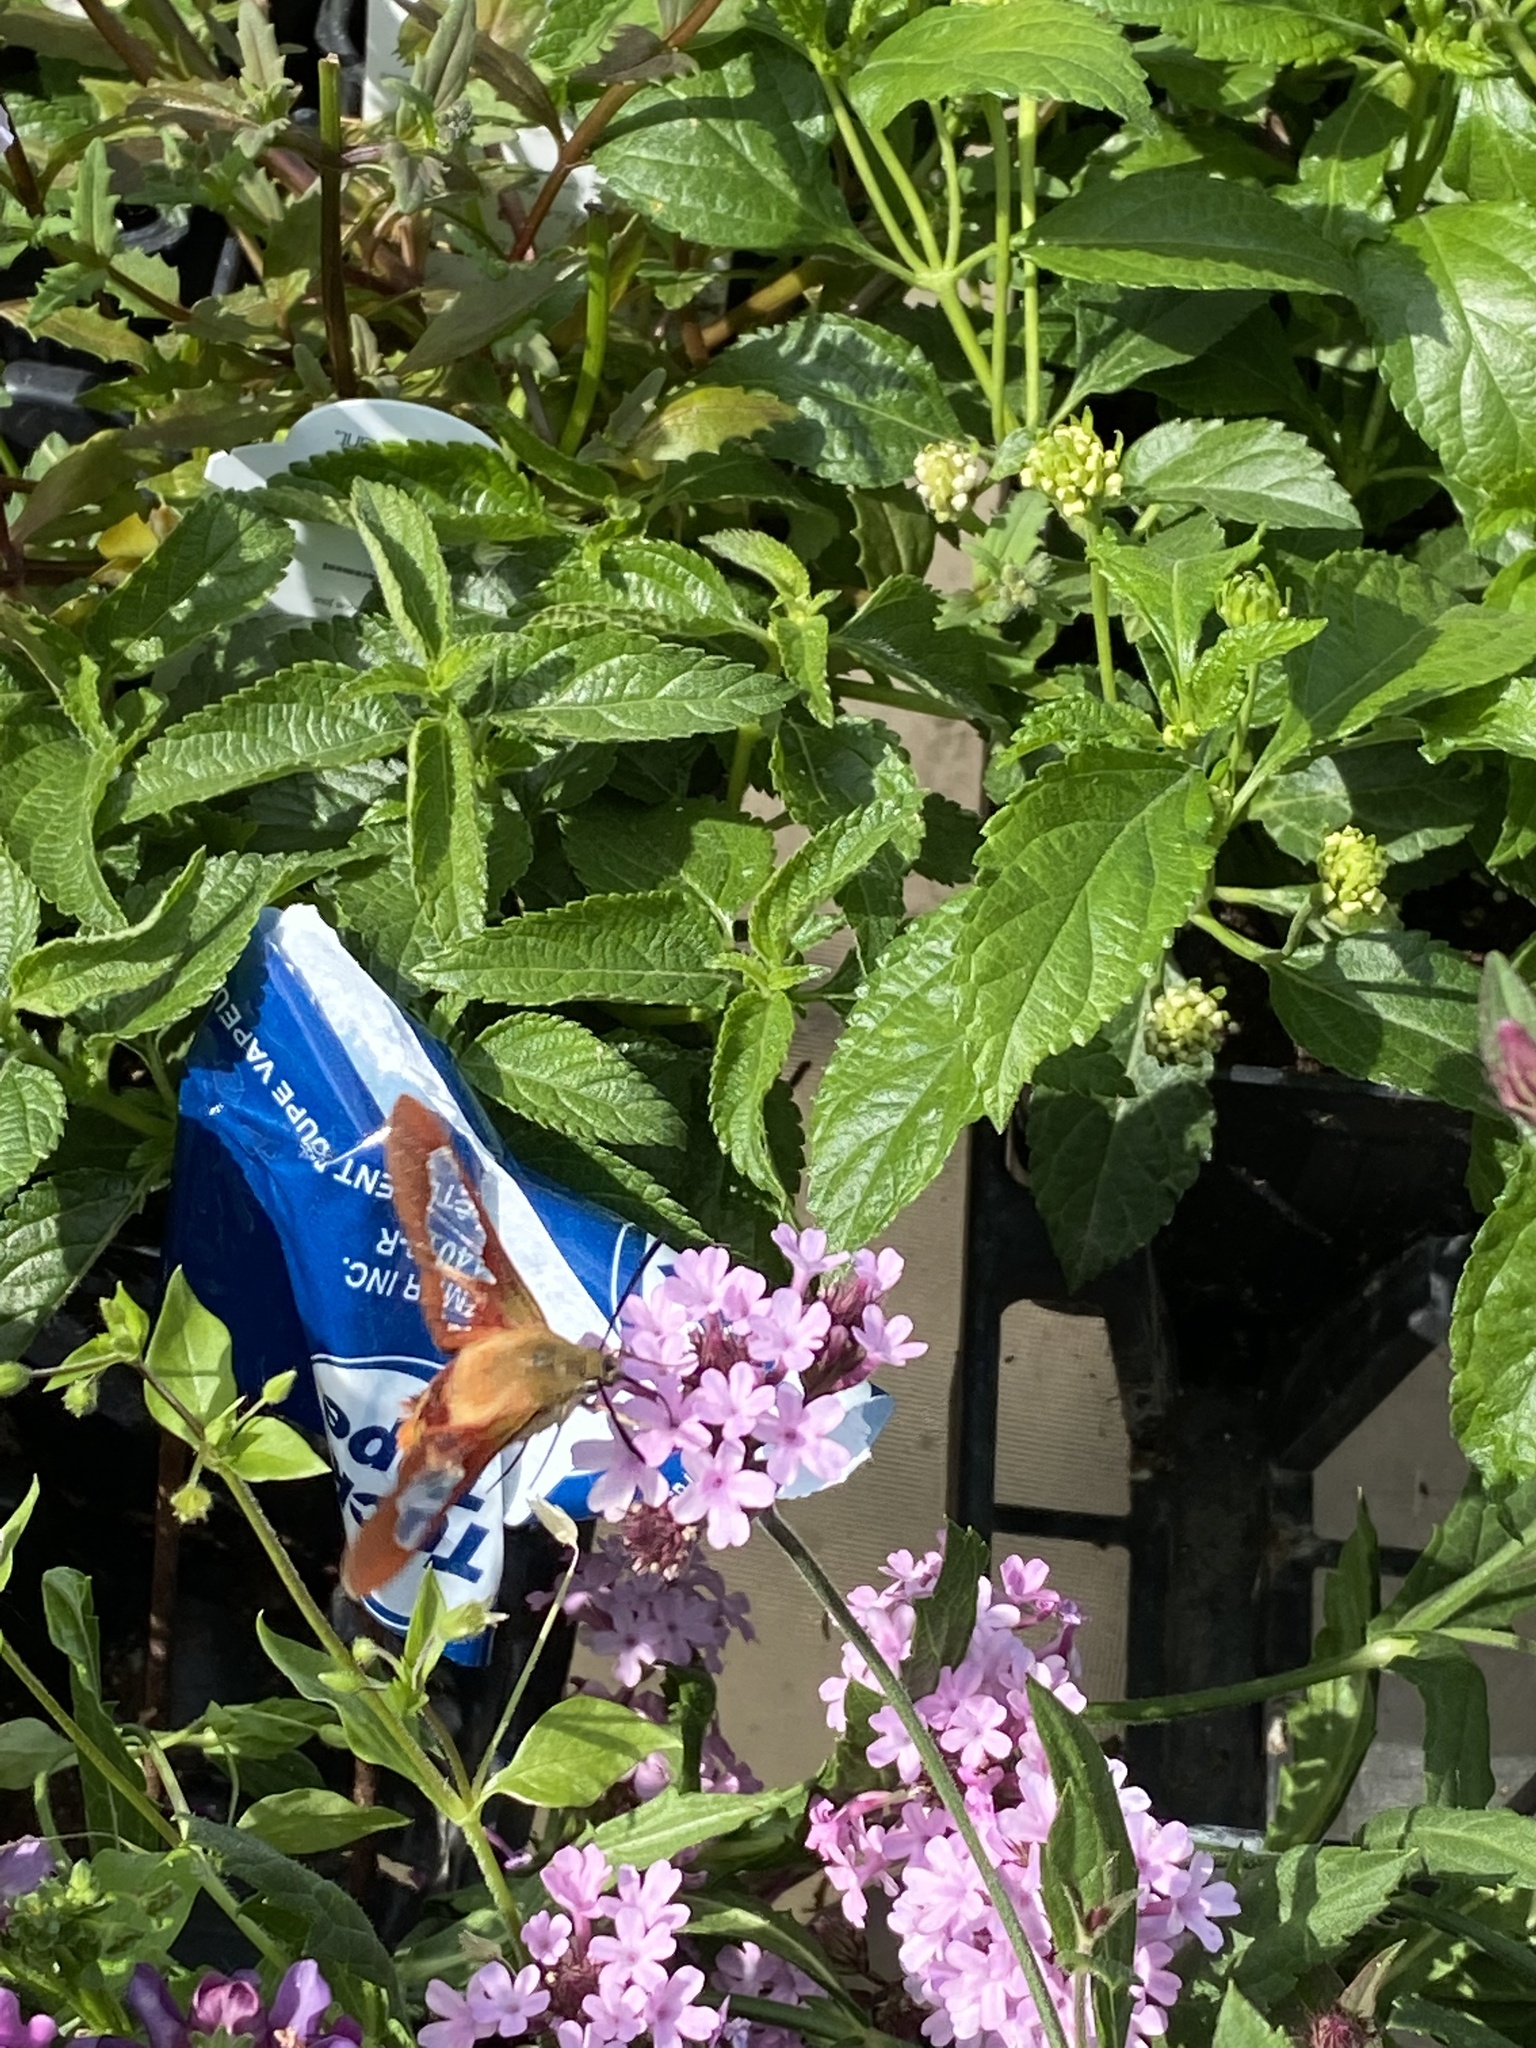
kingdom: Animalia
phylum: Arthropoda
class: Insecta
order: Lepidoptera
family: Sphingidae
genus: Hemaris
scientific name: Hemaris thysbe
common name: Common clear-wing
